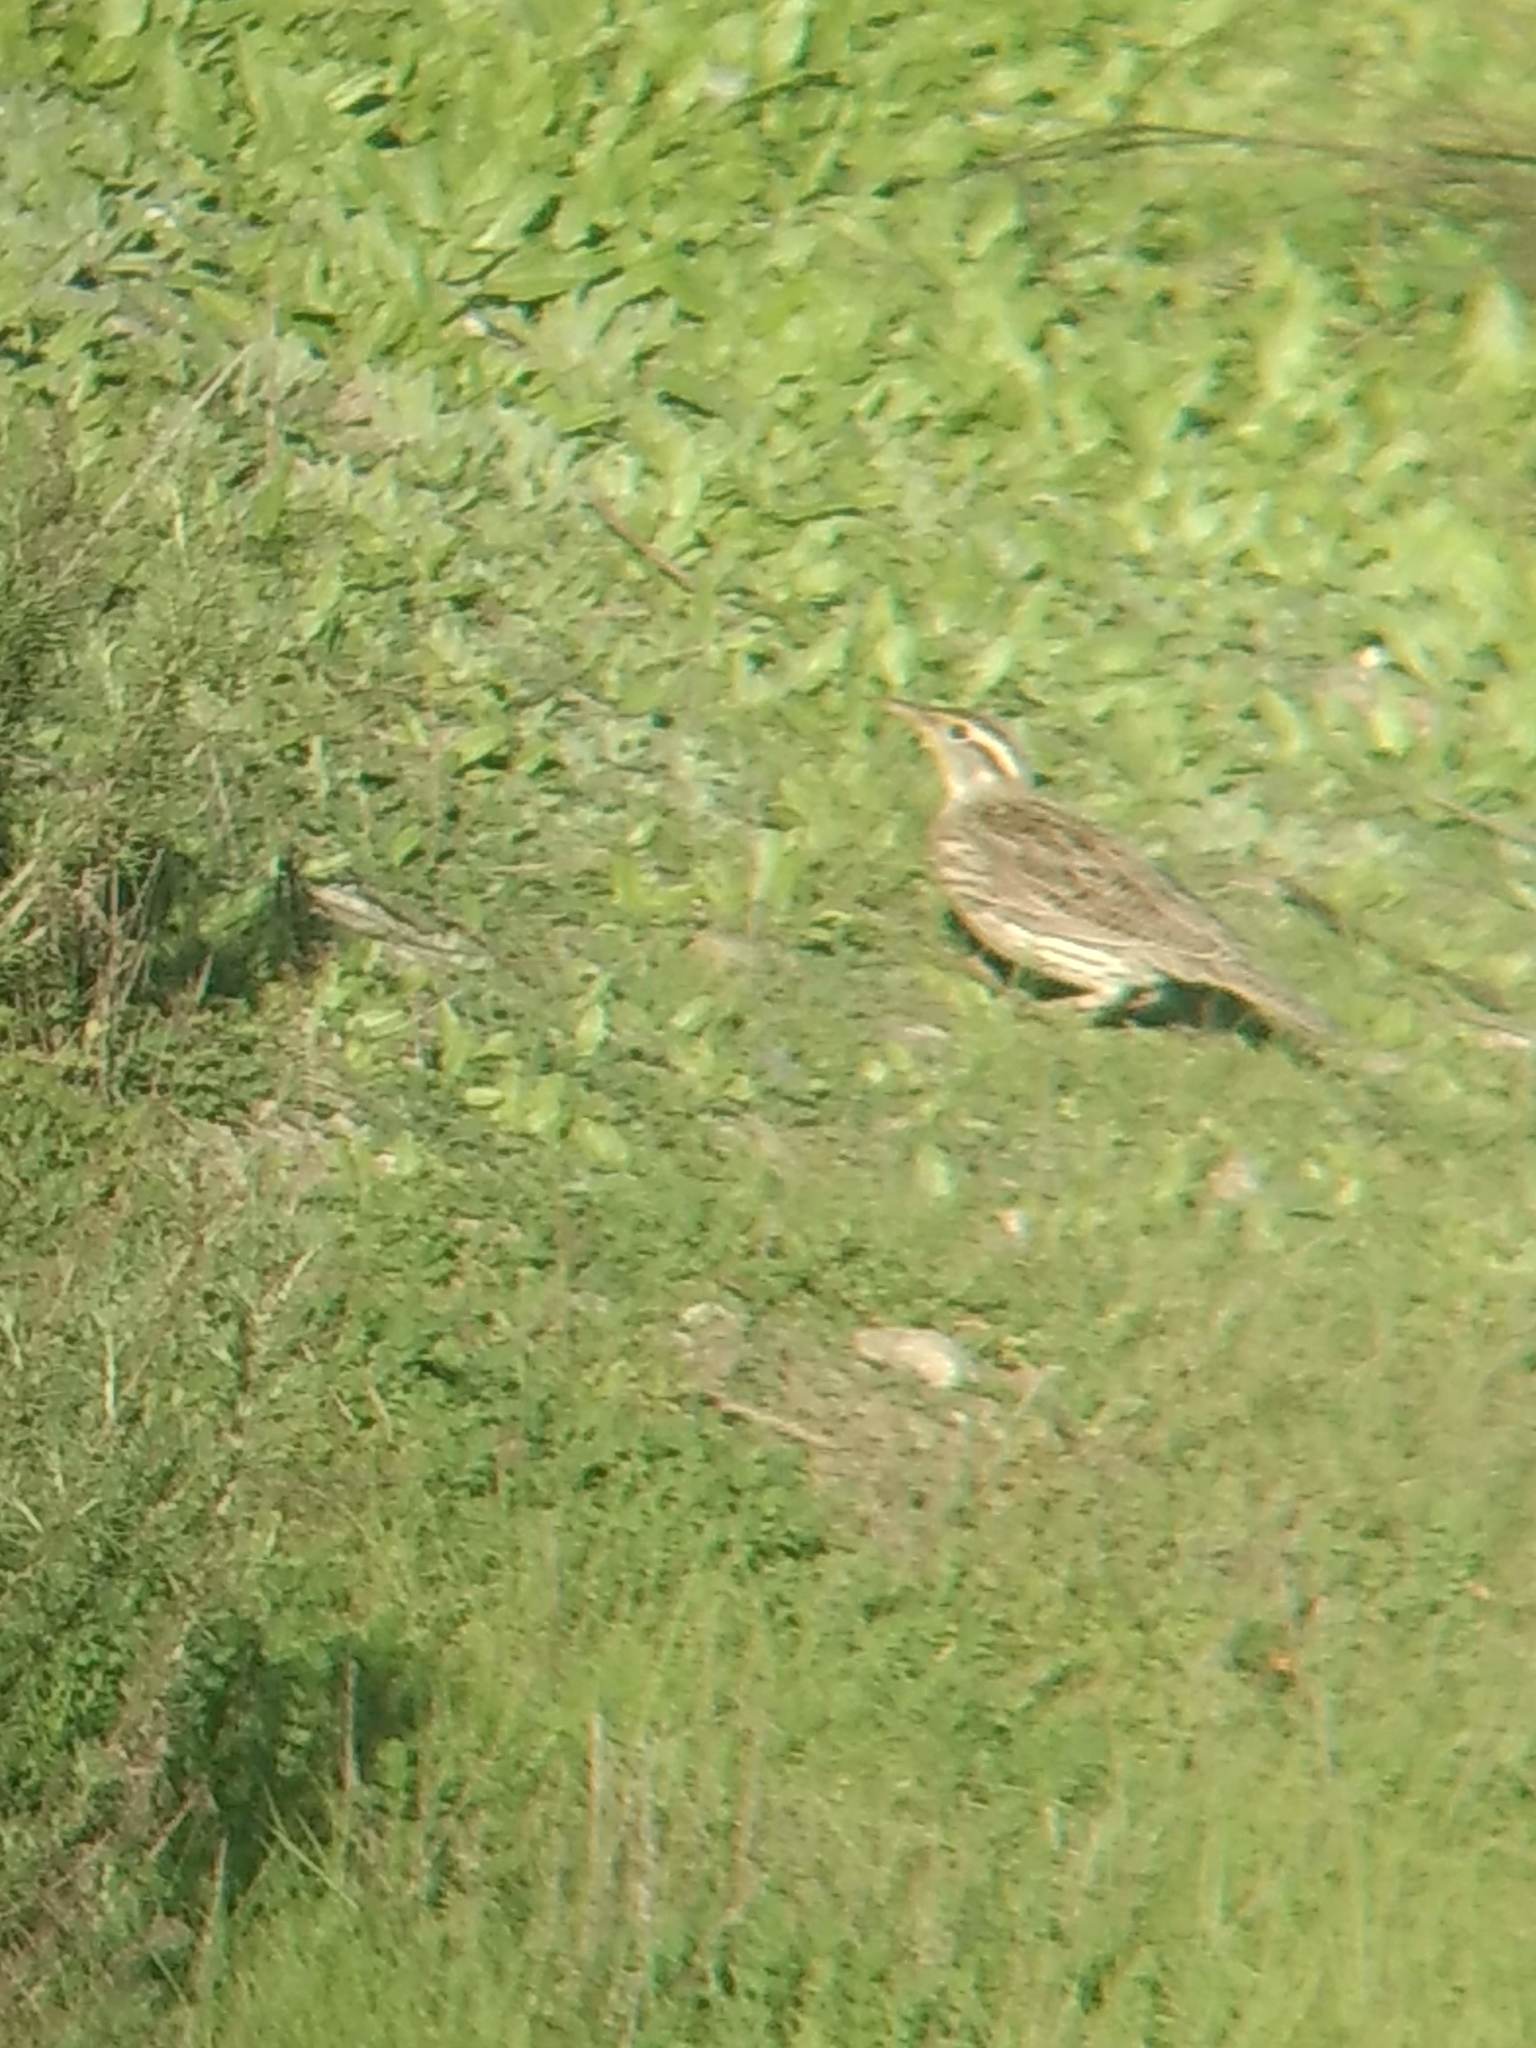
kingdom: Animalia
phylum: Chordata
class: Aves
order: Passeriformes
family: Icteridae
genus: Sturnella
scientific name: Sturnella neglecta
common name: Western meadowlark
